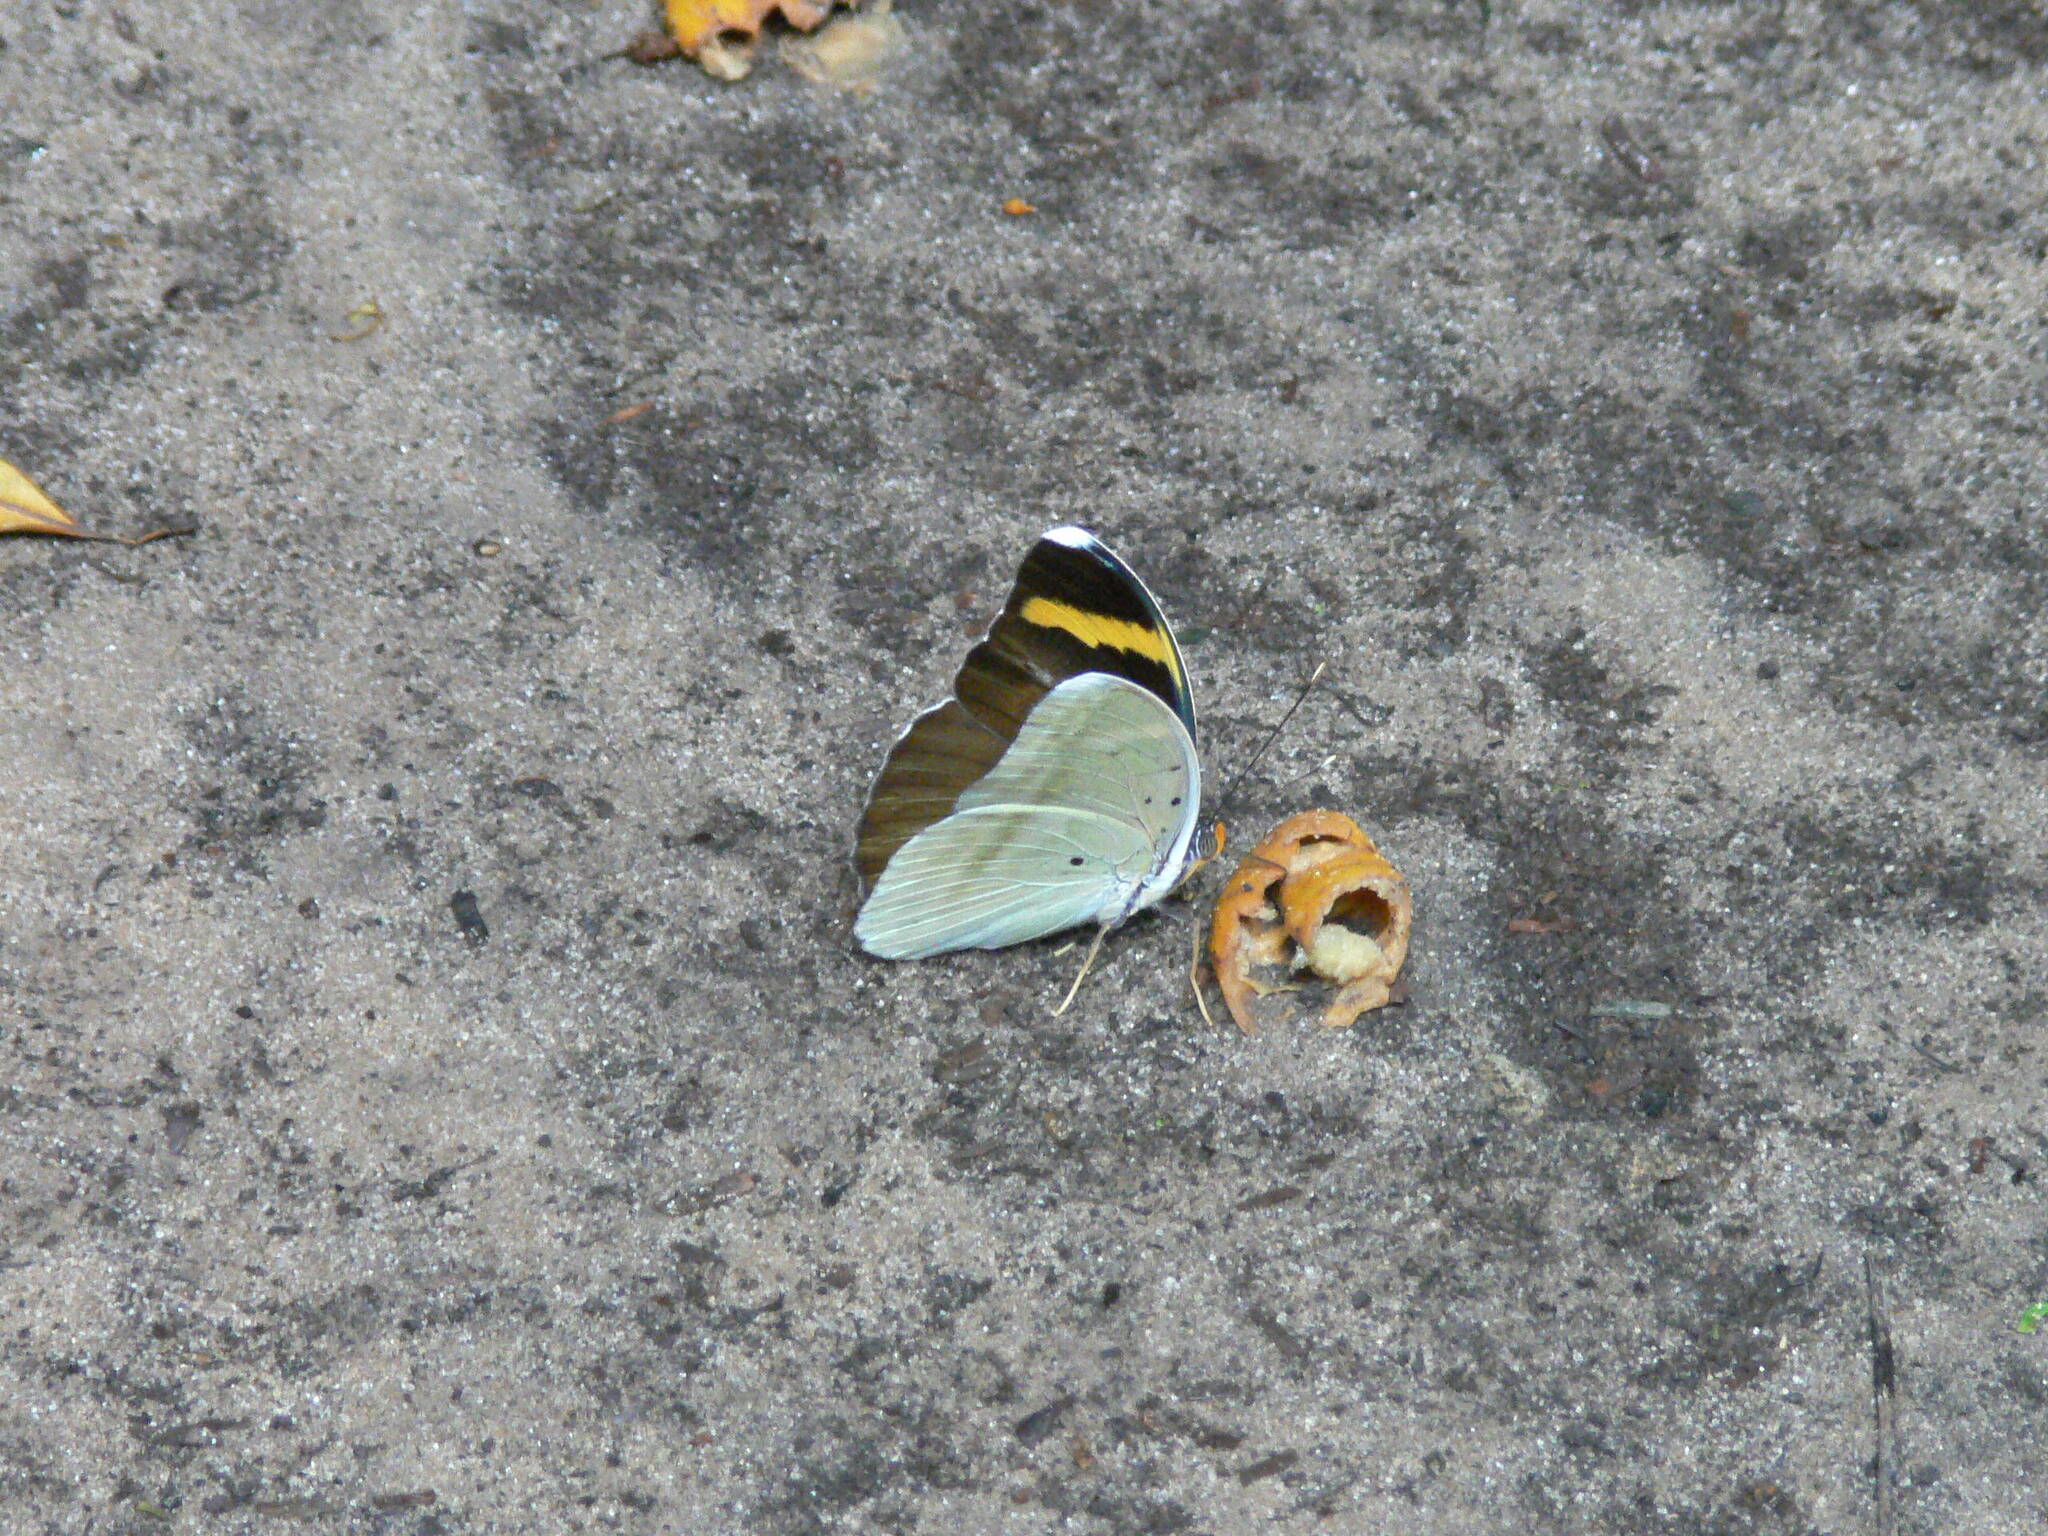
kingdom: Animalia
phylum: Arthropoda
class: Insecta
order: Lepidoptera
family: Nymphalidae
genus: Euphaedra
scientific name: Euphaedra harpalyce
